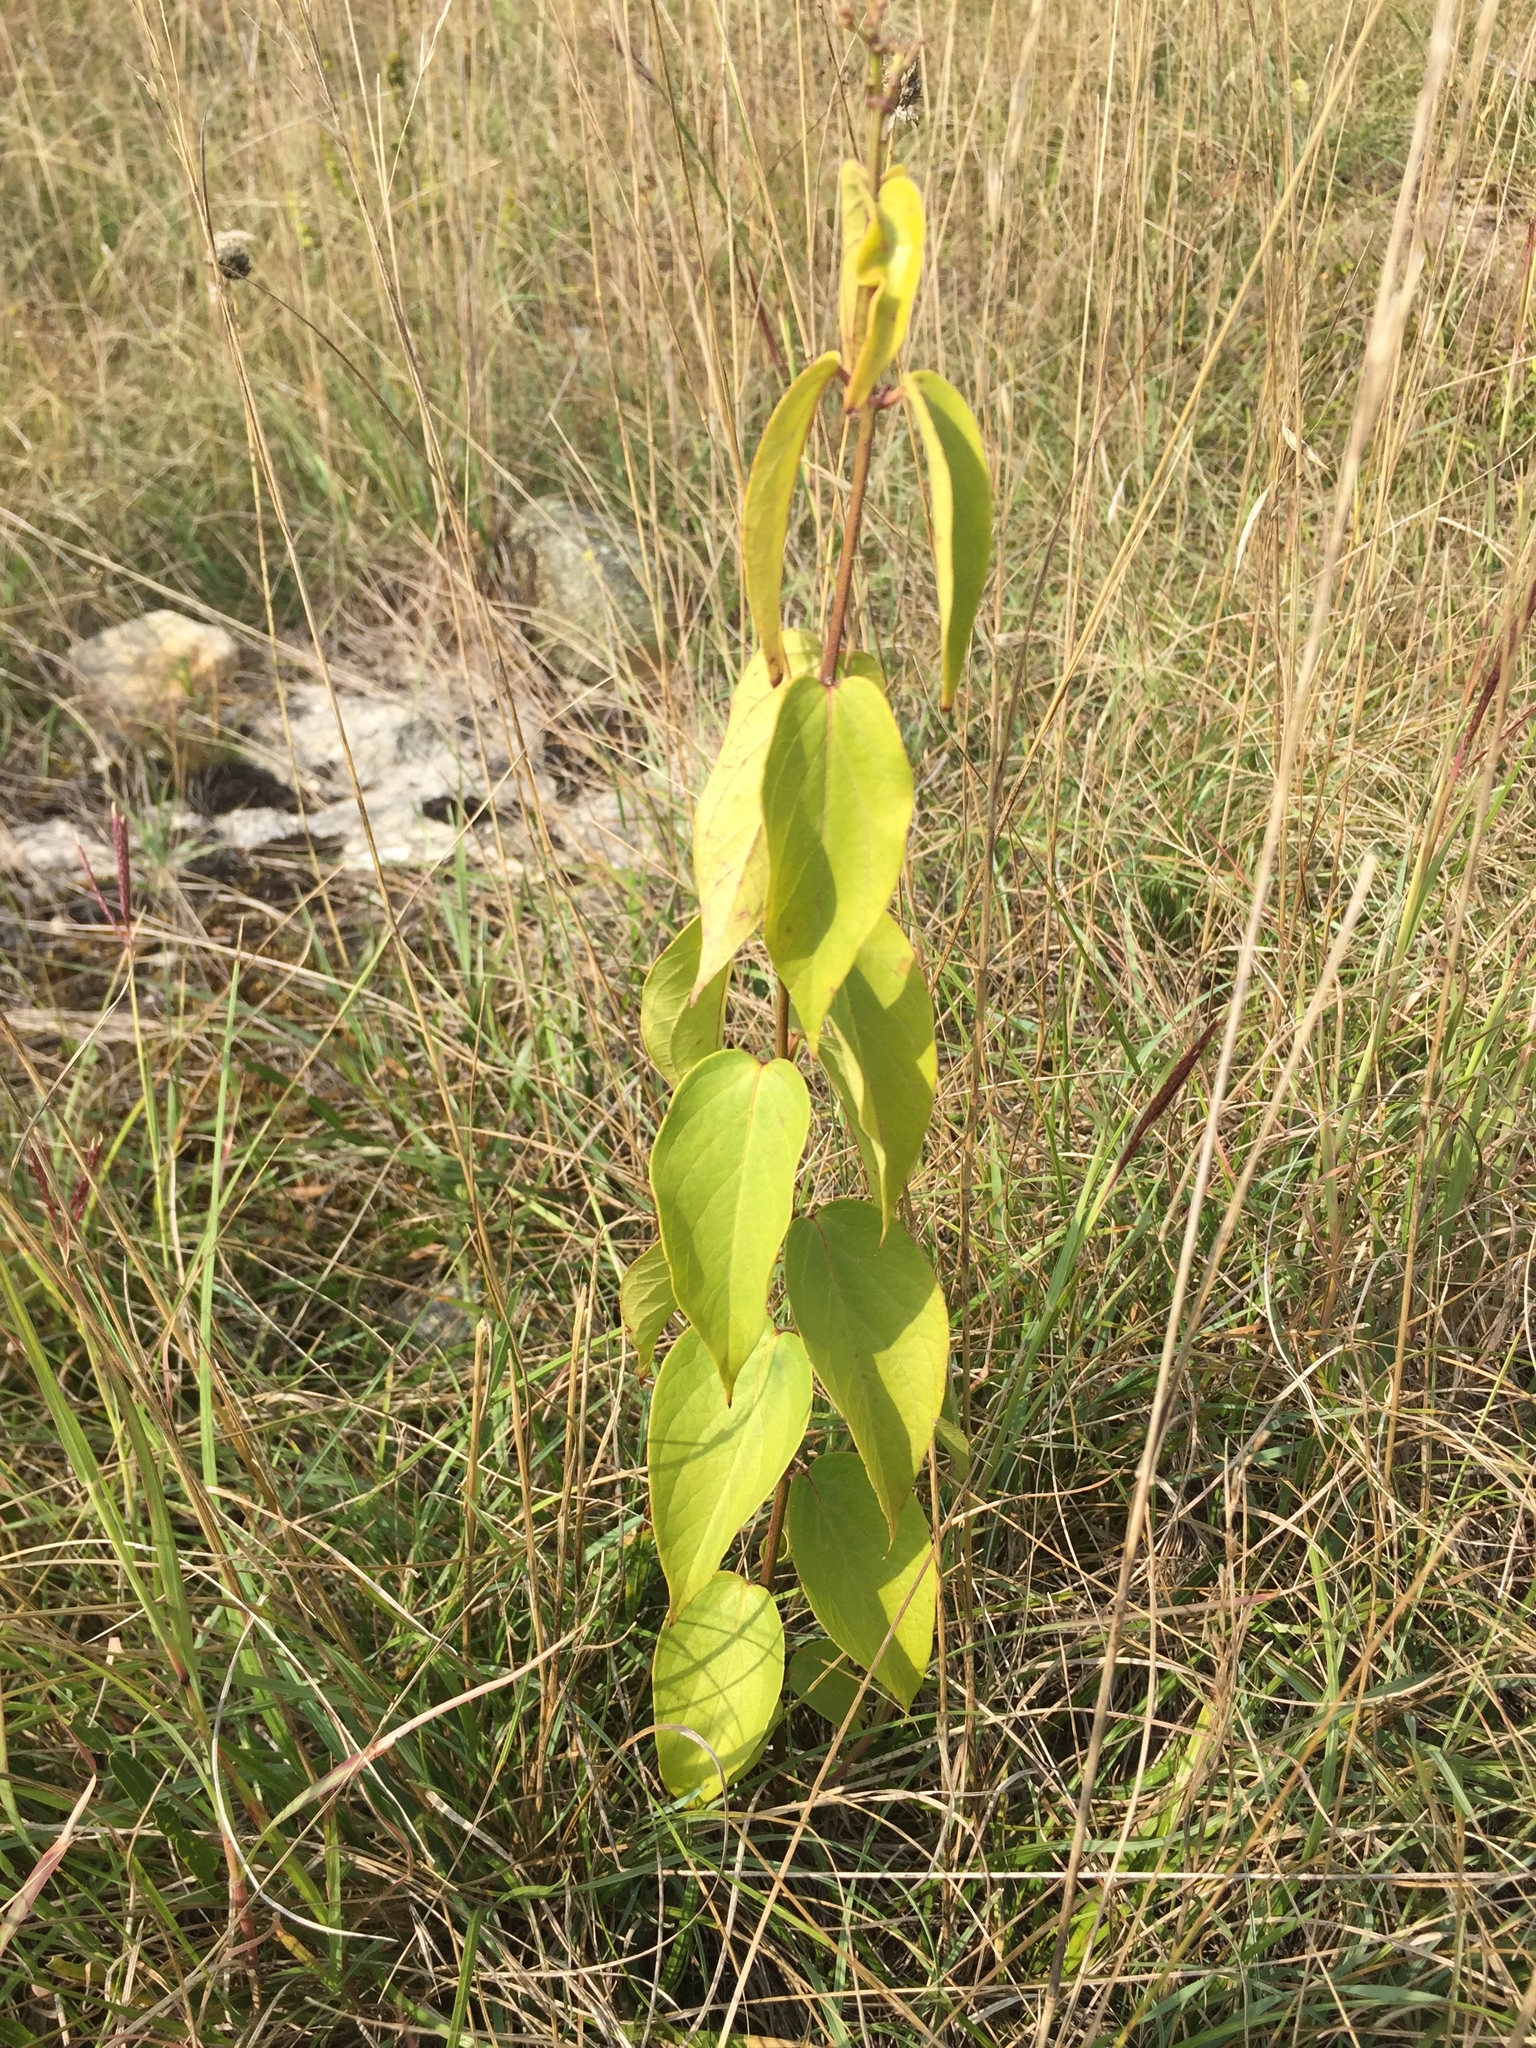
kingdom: Plantae
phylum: Tracheophyta
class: Magnoliopsida
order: Gentianales
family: Apocynaceae
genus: Vincetoxicum
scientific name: Vincetoxicum hirundinaria
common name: White swallowwort
